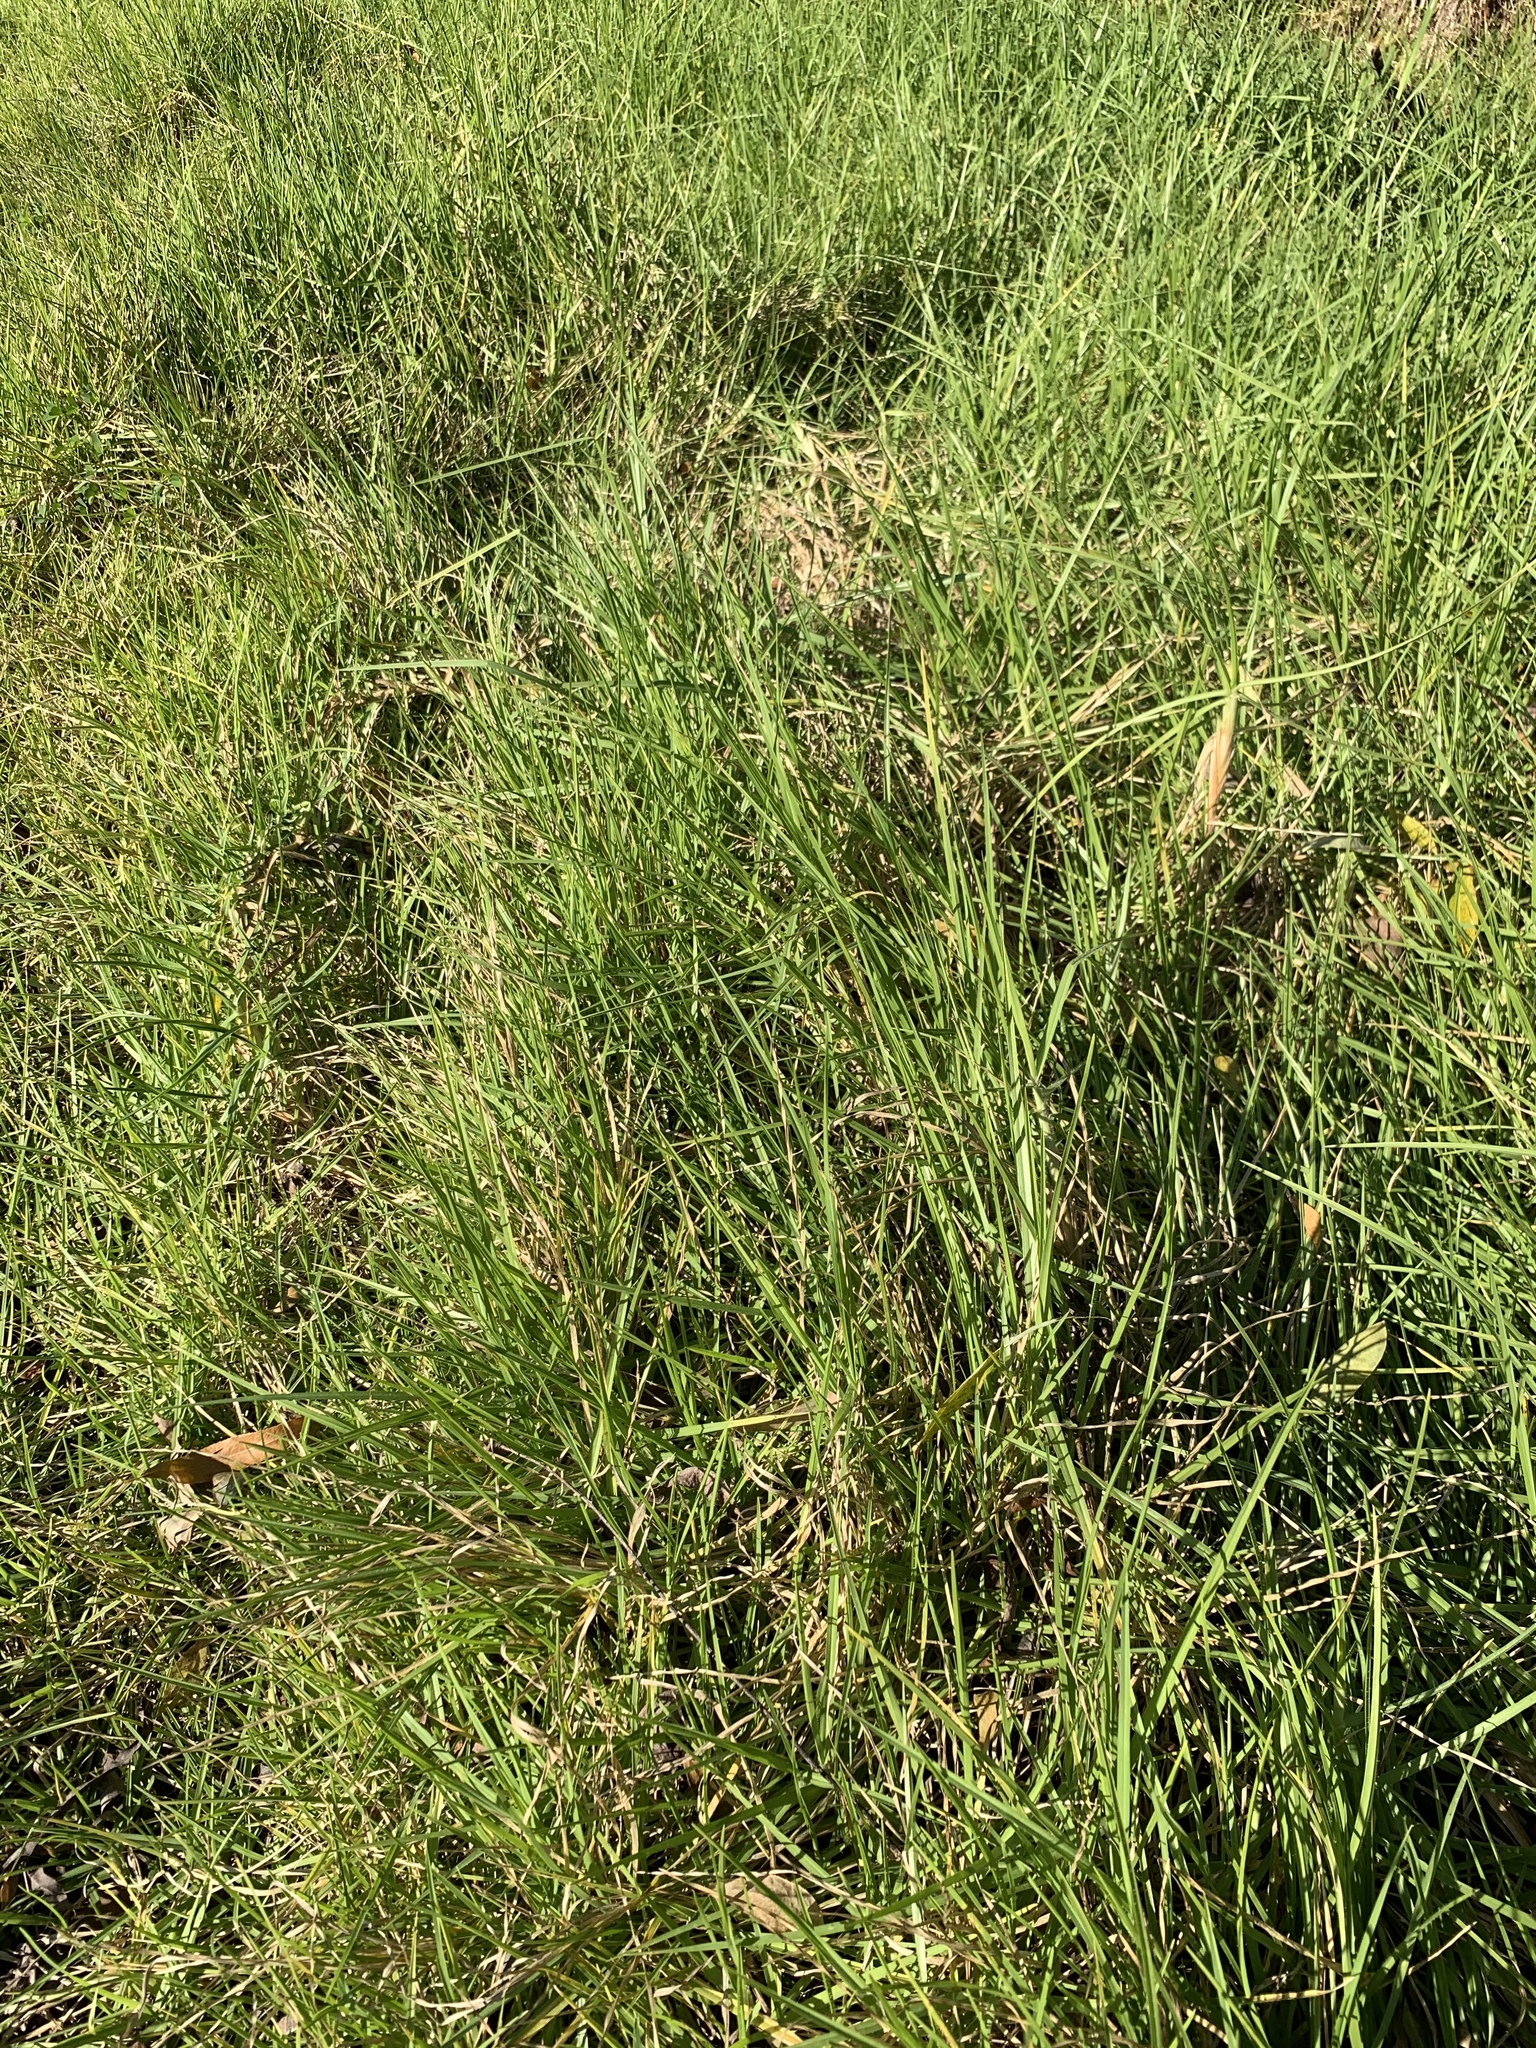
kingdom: Plantae
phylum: Tracheophyta
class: Liliopsida
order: Poales
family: Poaceae
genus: Cenchrus
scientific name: Cenchrus clandestinus
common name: Kikuyugrass
